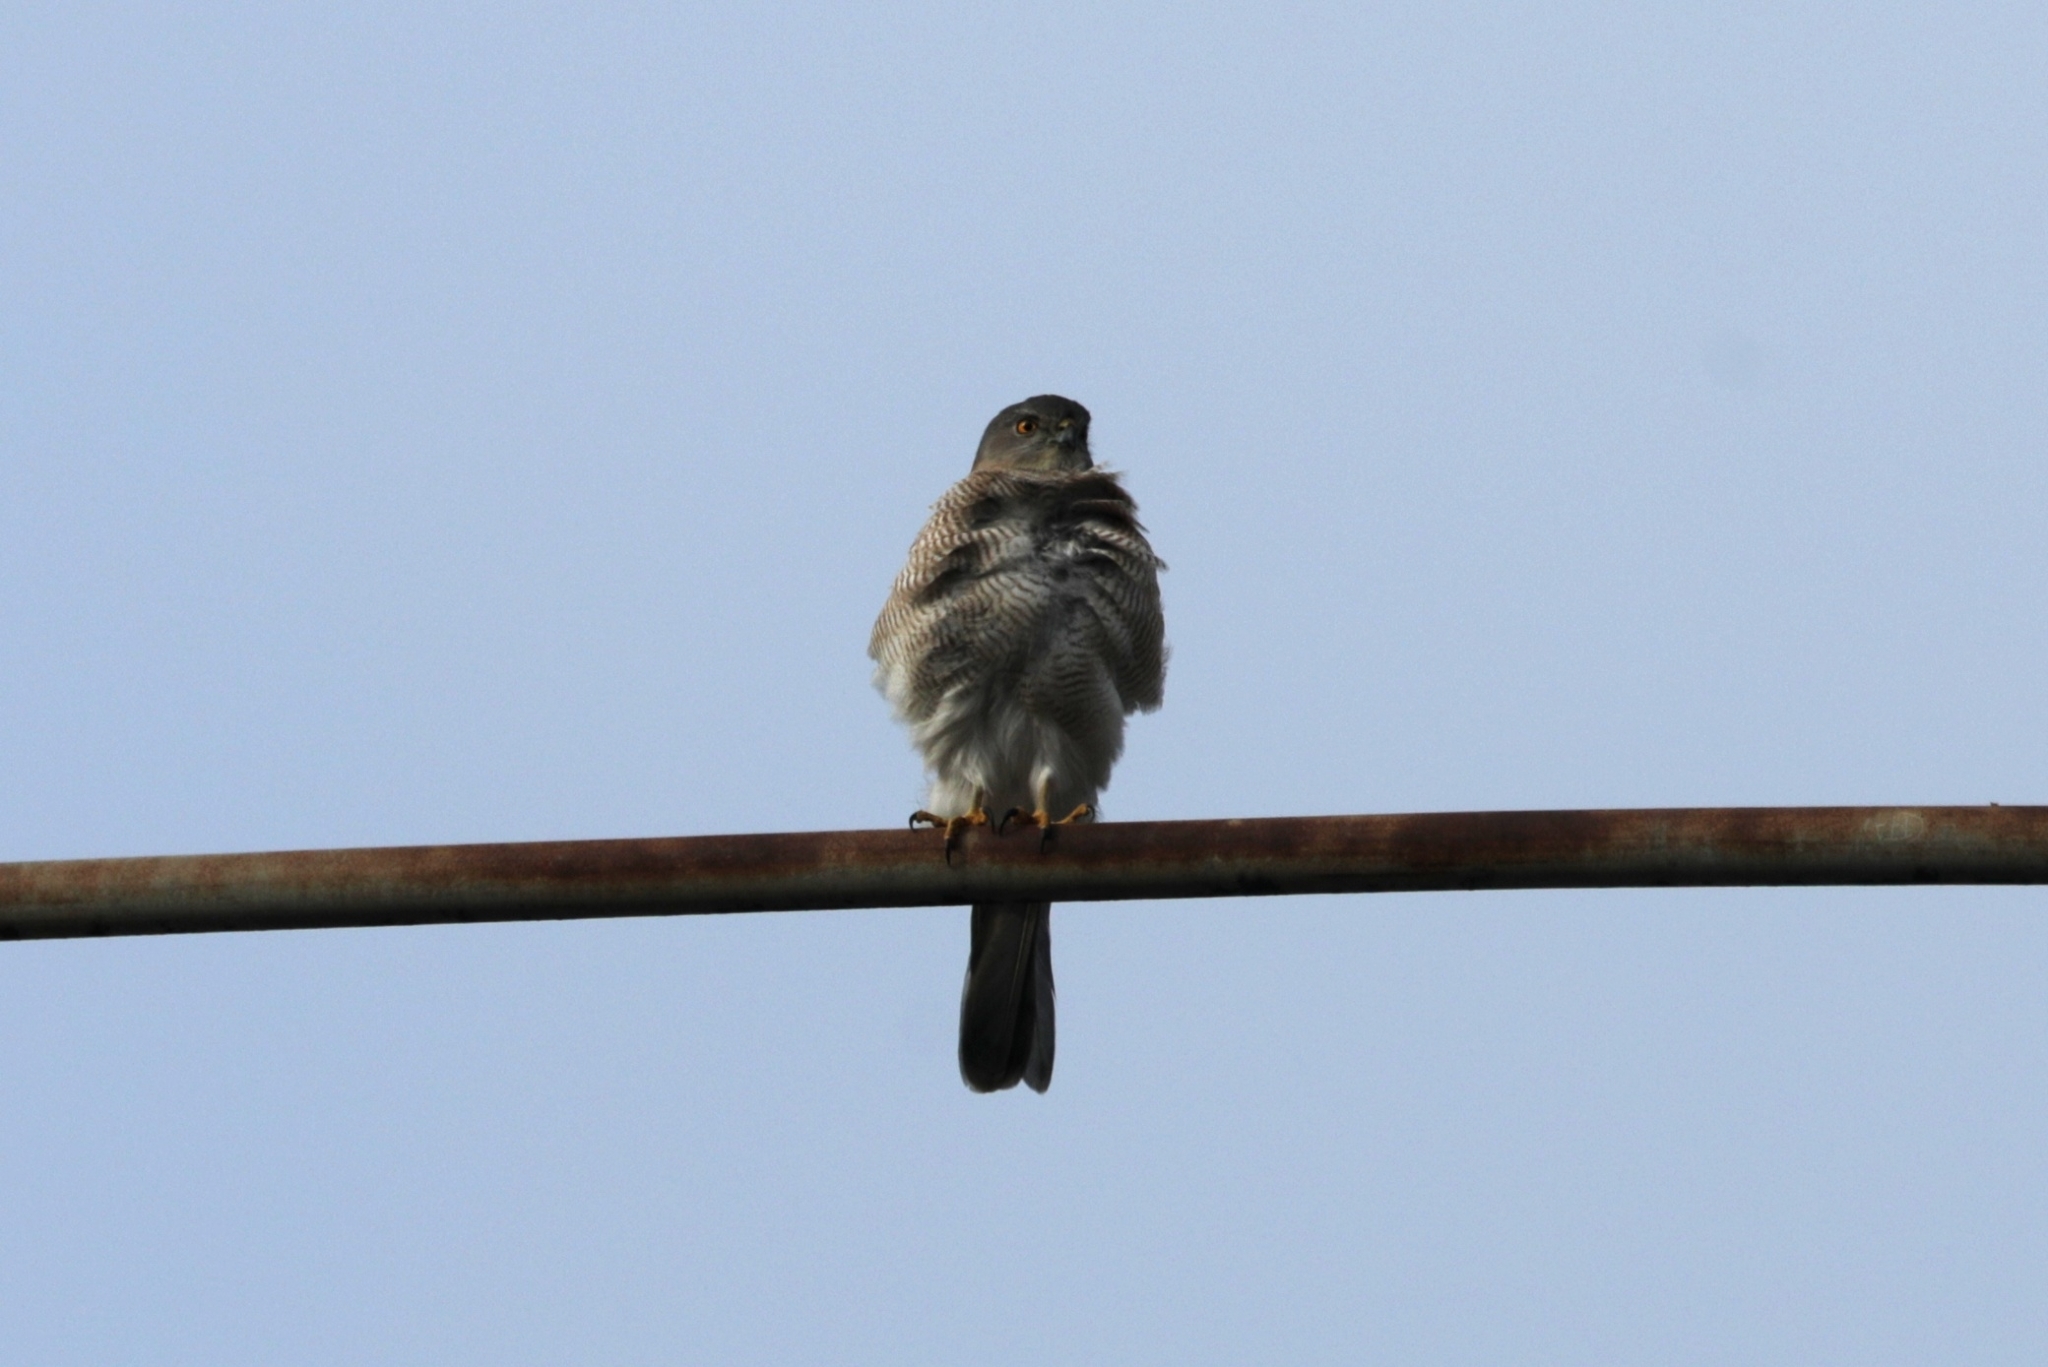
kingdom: Animalia
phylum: Chordata
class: Aves
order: Accipitriformes
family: Accipitridae
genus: Accipiter
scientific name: Accipiter badius
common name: Shikra
